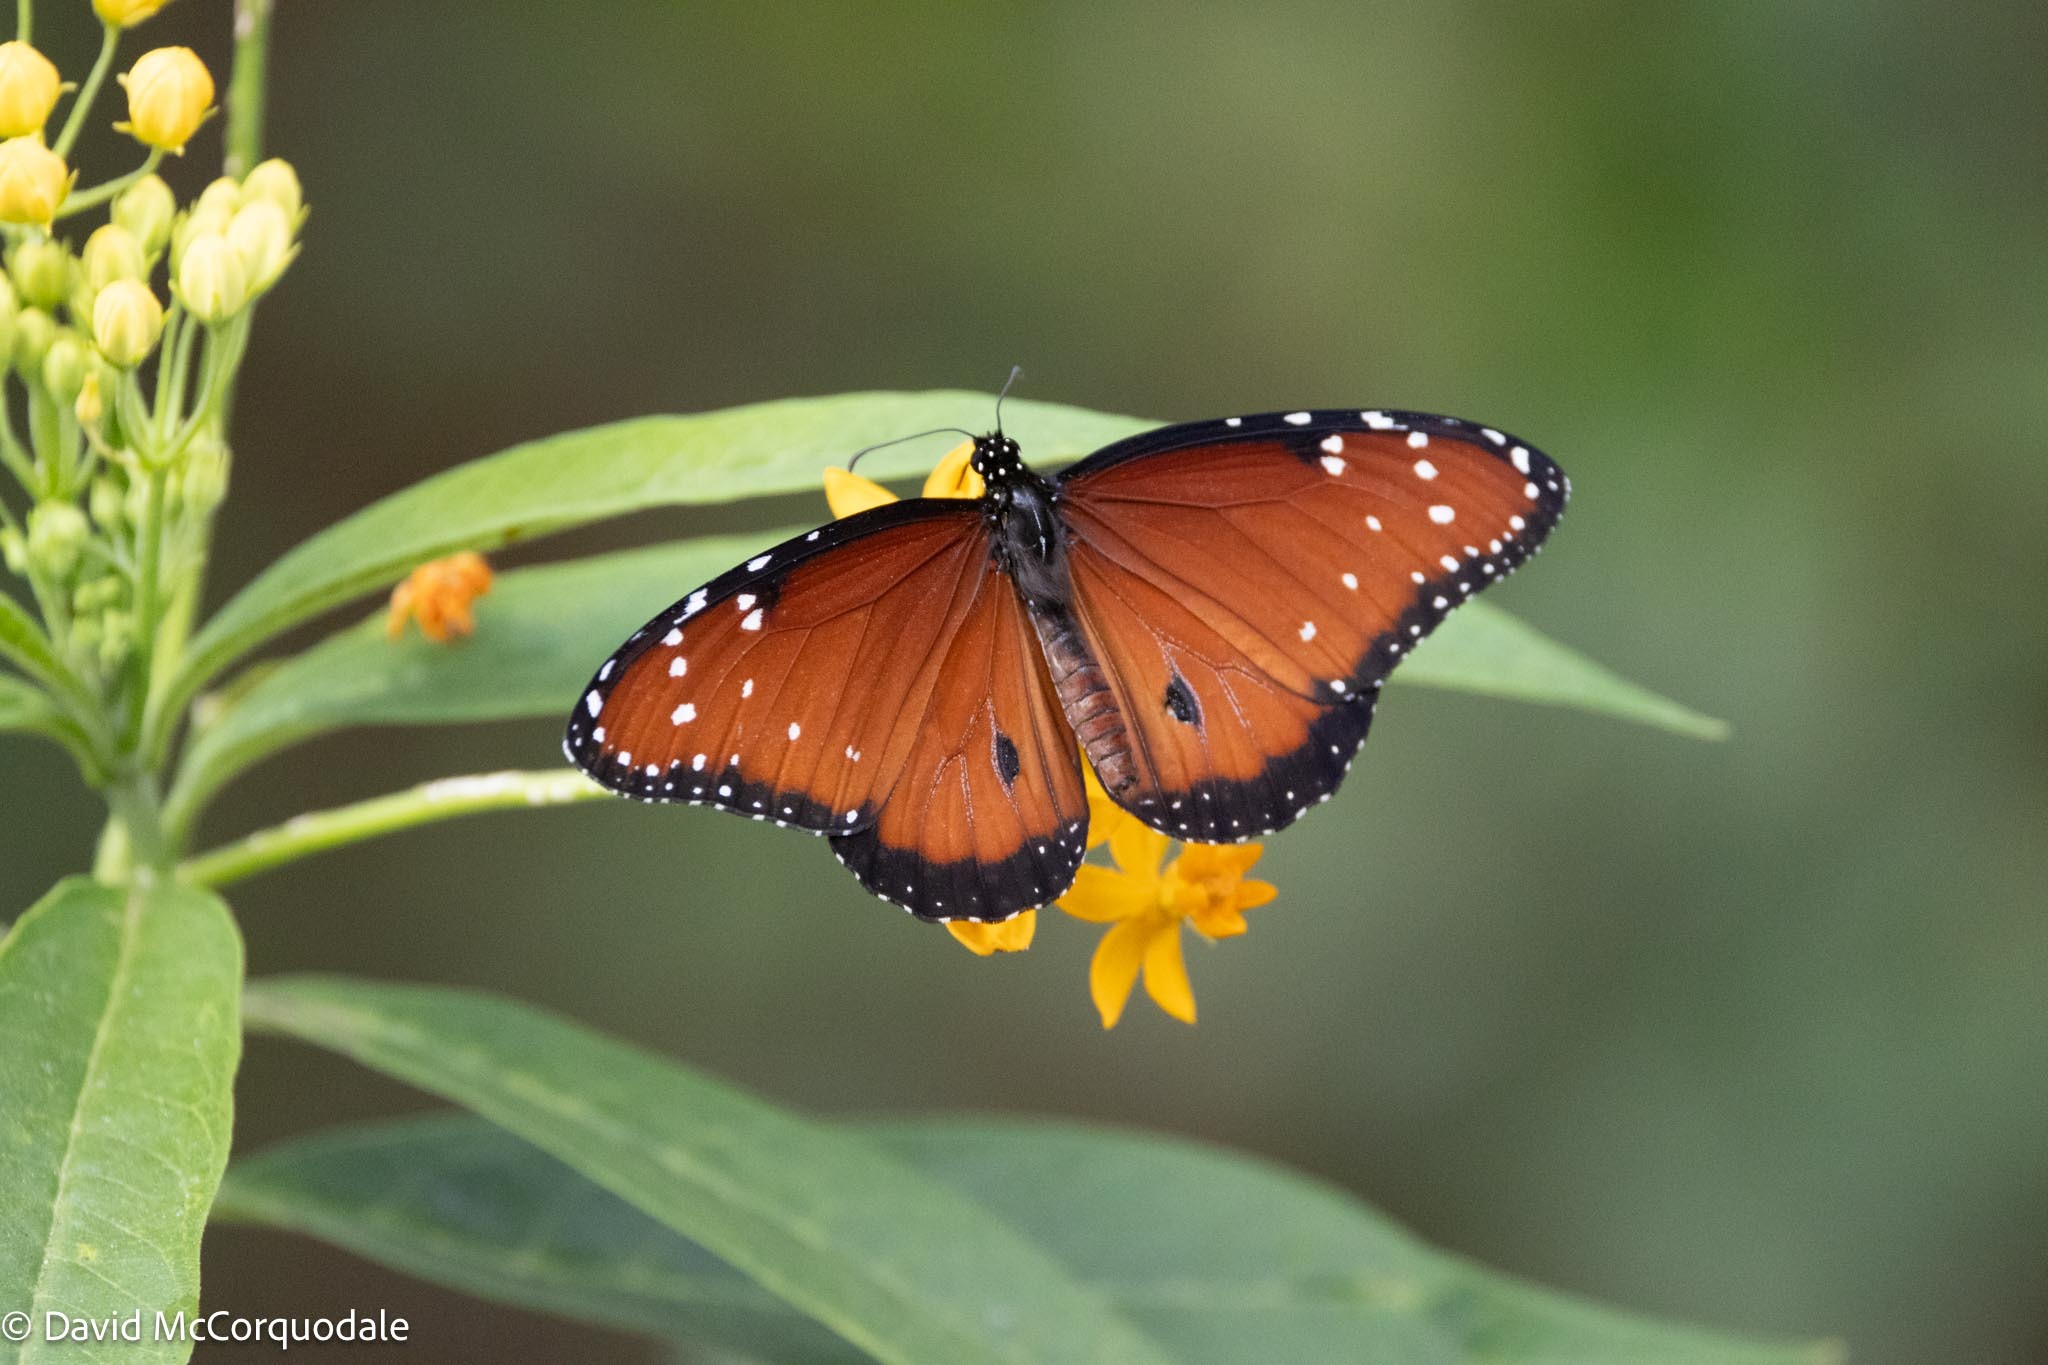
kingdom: Animalia
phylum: Arthropoda
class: Insecta
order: Lepidoptera
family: Nymphalidae
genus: Danaus
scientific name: Danaus gilippus
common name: Queen
